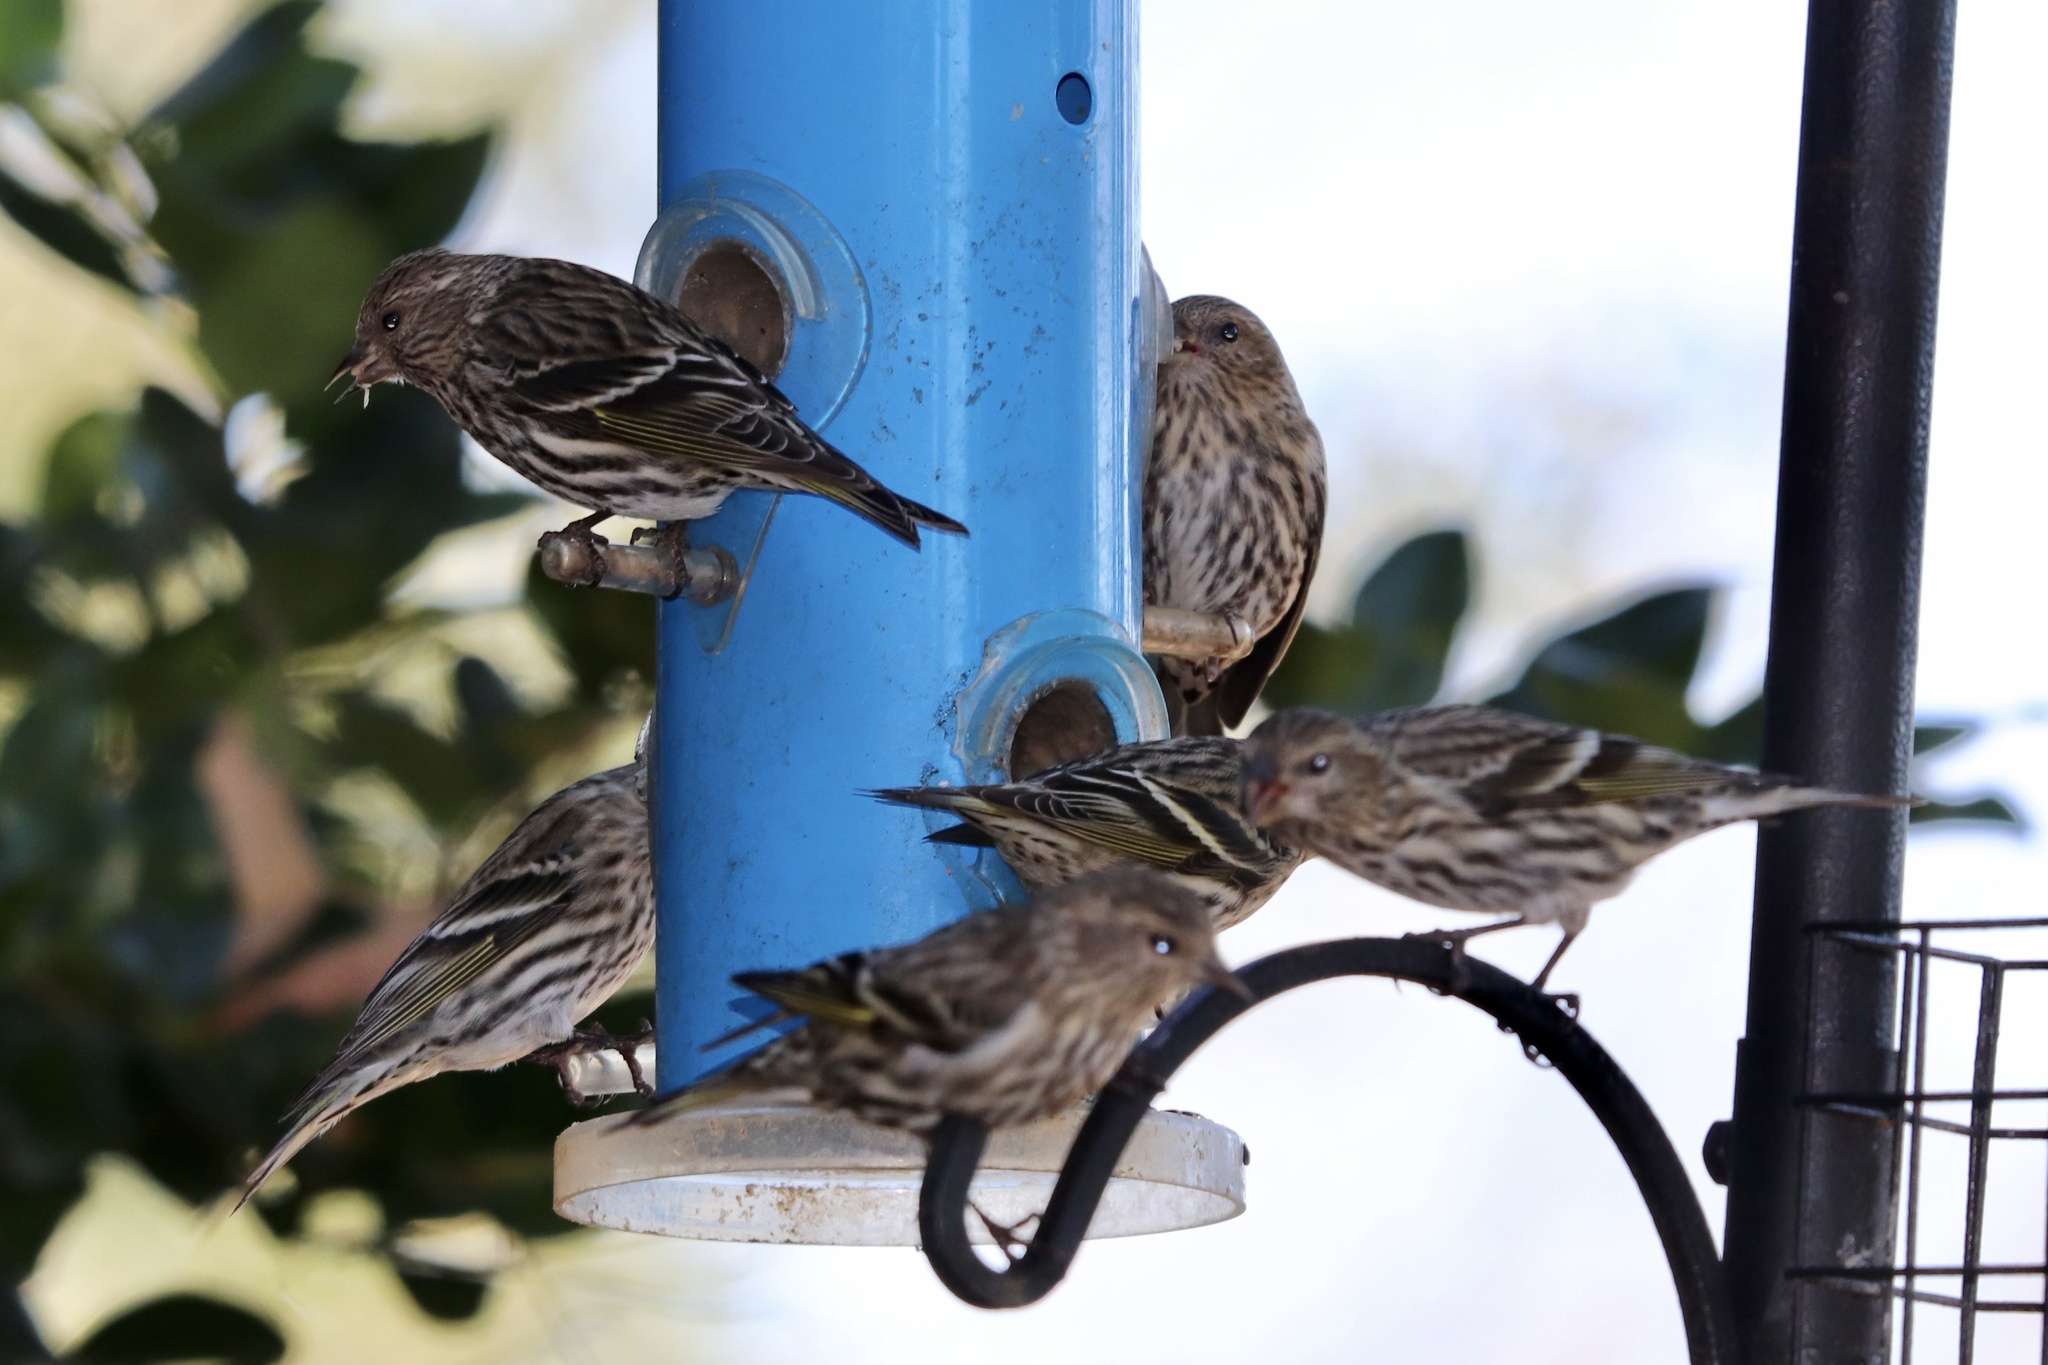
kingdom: Animalia
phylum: Chordata
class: Aves
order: Passeriformes
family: Fringillidae
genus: Spinus
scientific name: Spinus pinus
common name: Pine siskin
